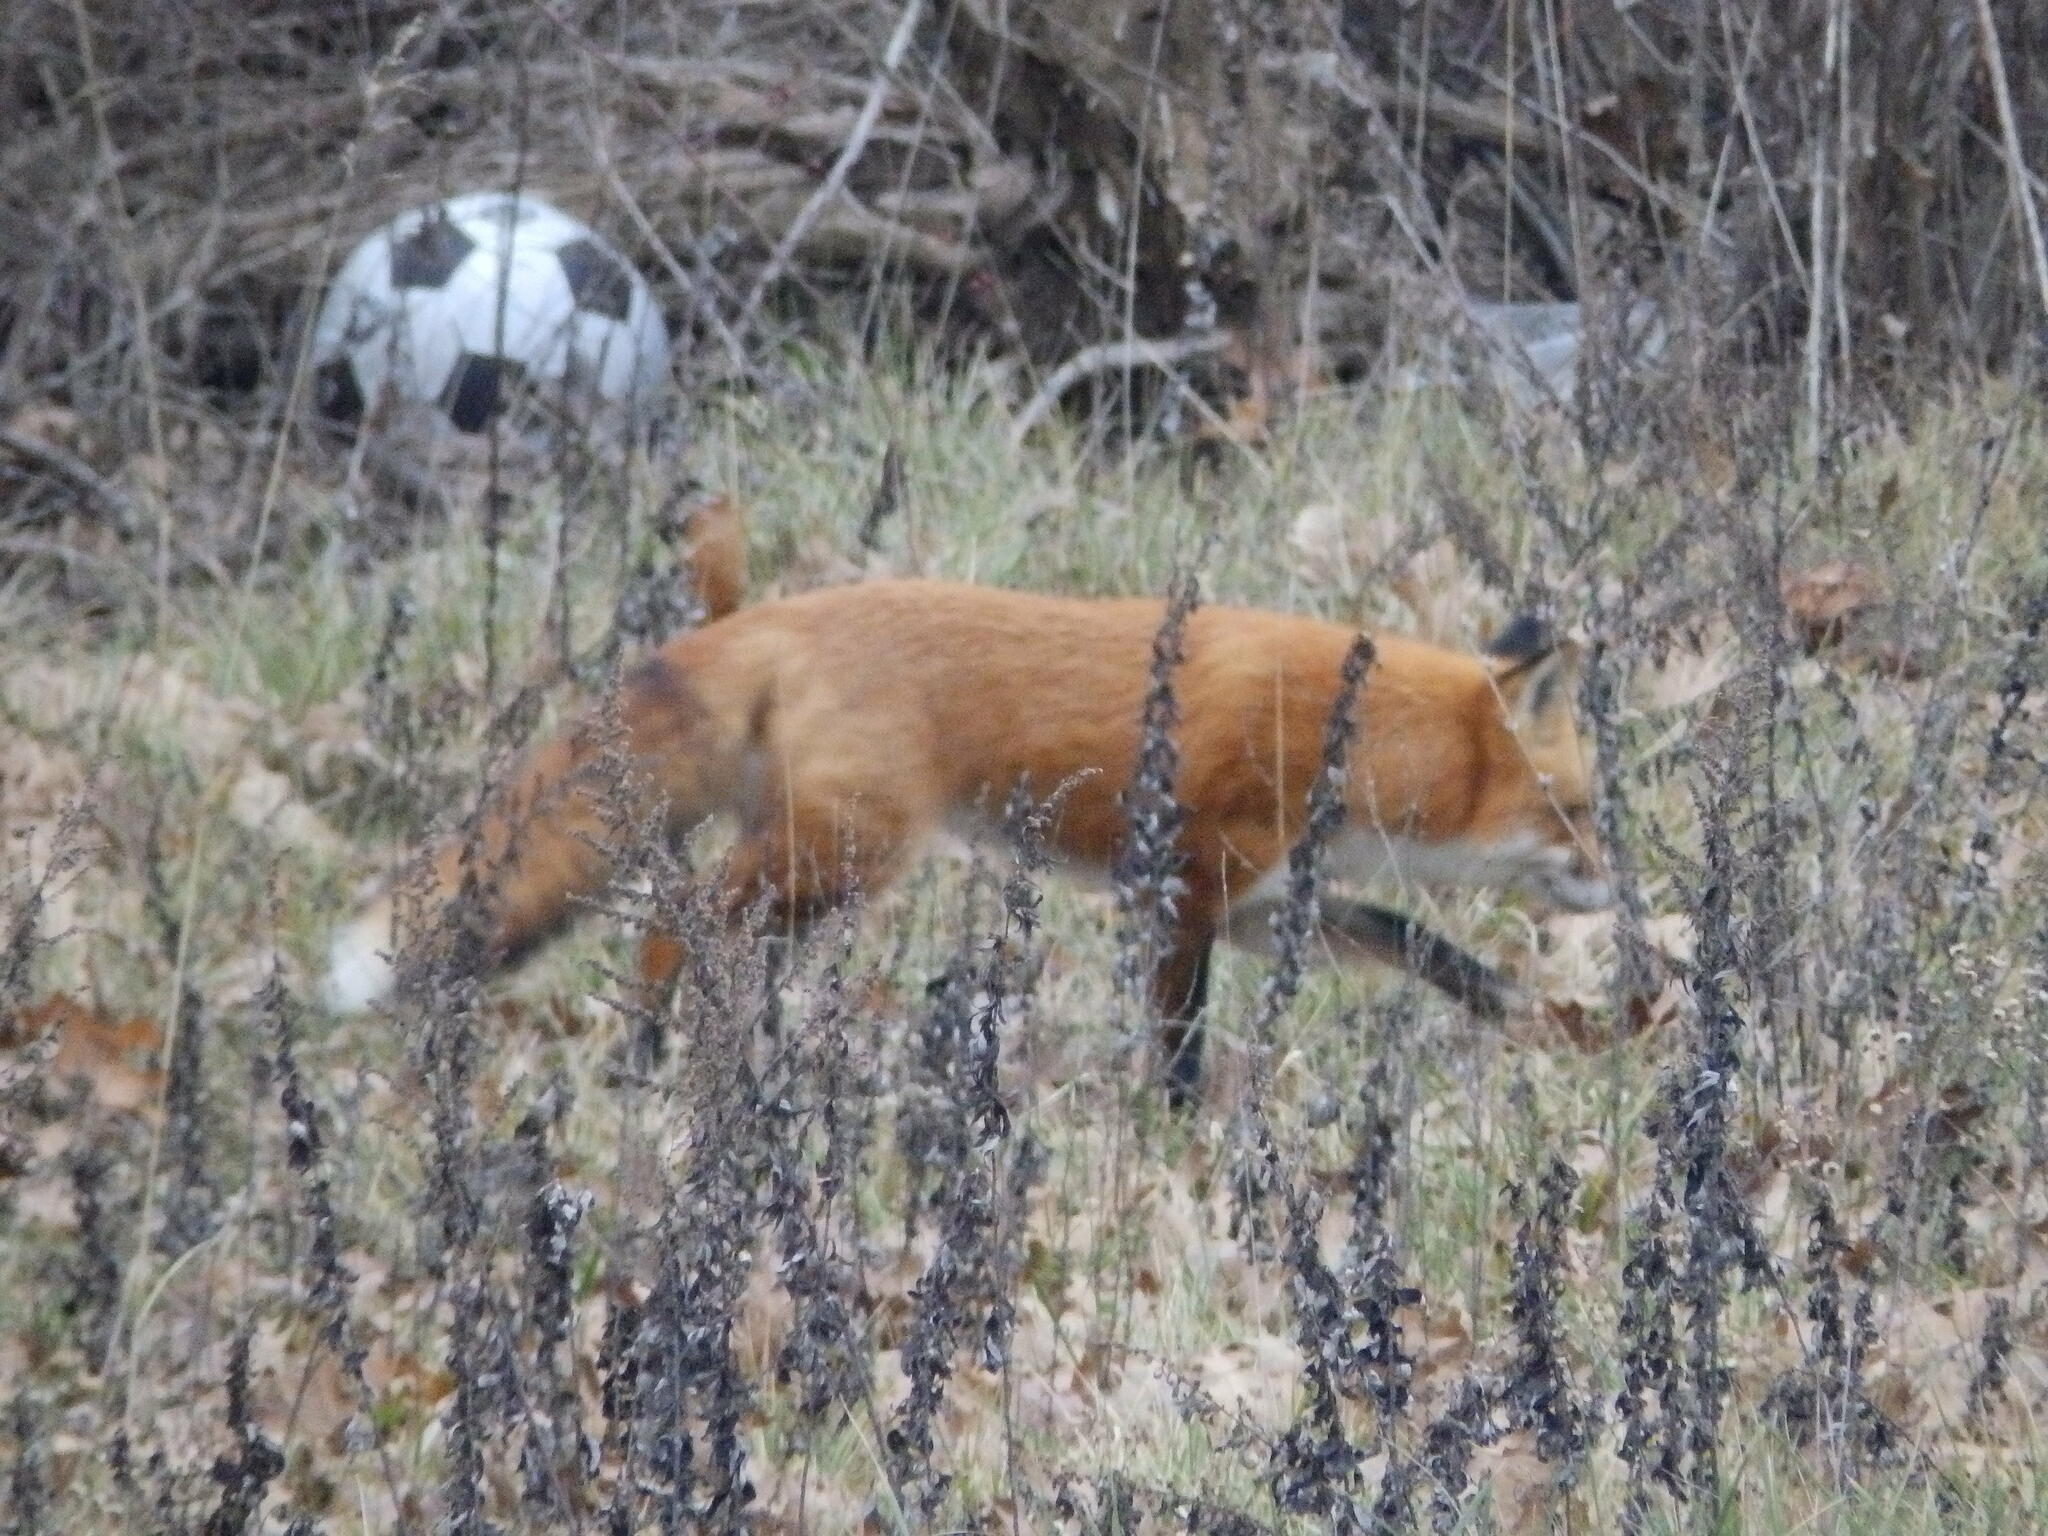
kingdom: Animalia
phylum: Chordata
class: Mammalia
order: Carnivora
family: Canidae
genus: Vulpes
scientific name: Vulpes vulpes
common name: Red fox
